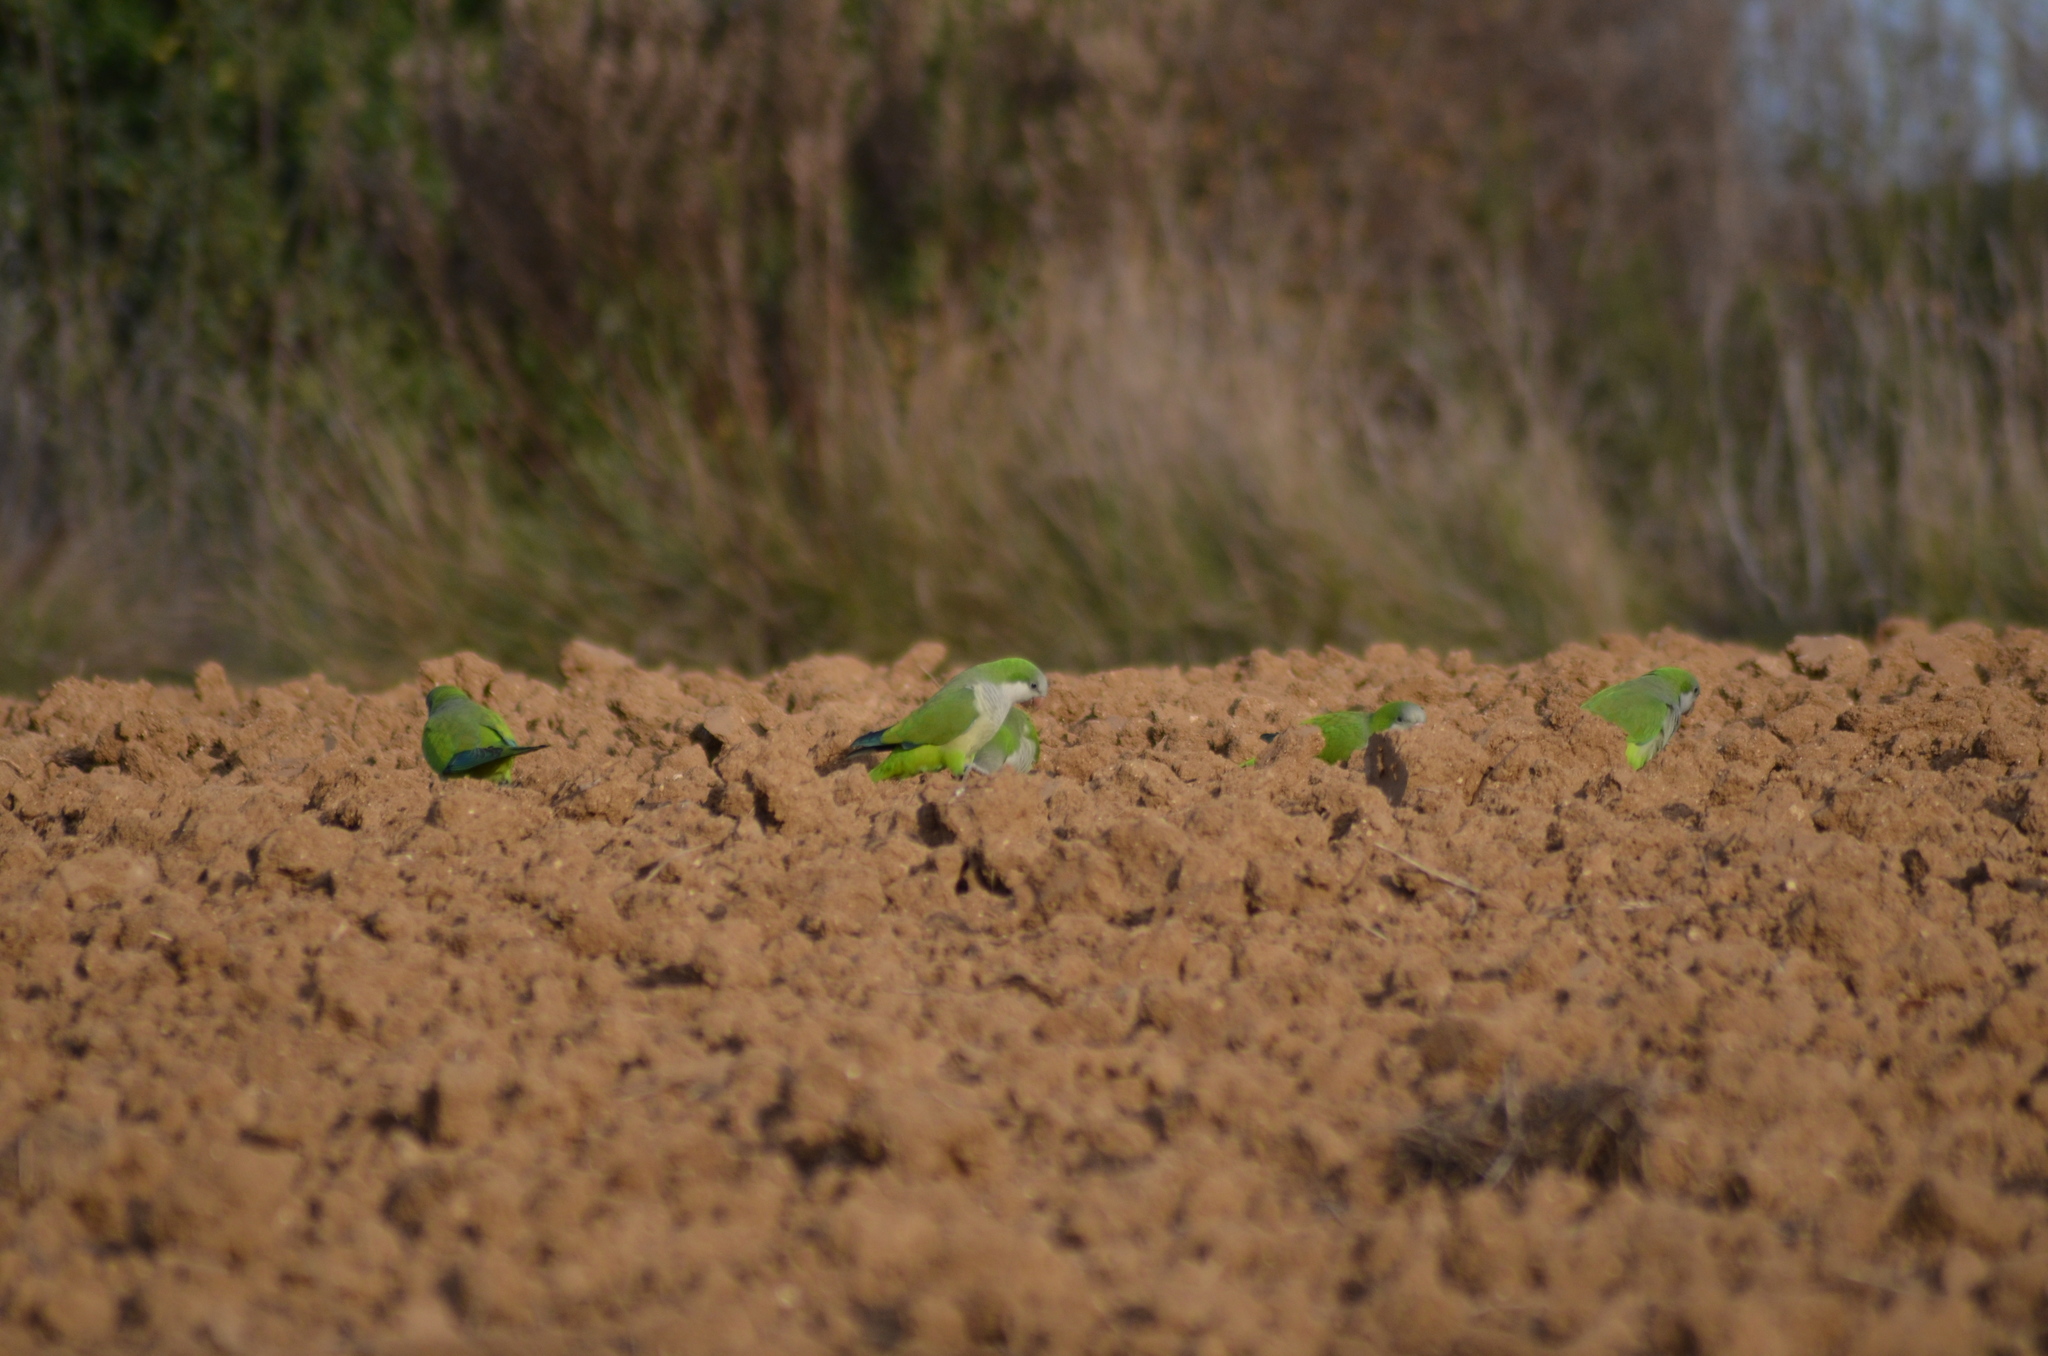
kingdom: Animalia
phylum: Chordata
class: Aves
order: Psittaciformes
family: Psittacidae
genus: Myiopsitta
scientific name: Myiopsitta monachus
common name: Monk parakeet
